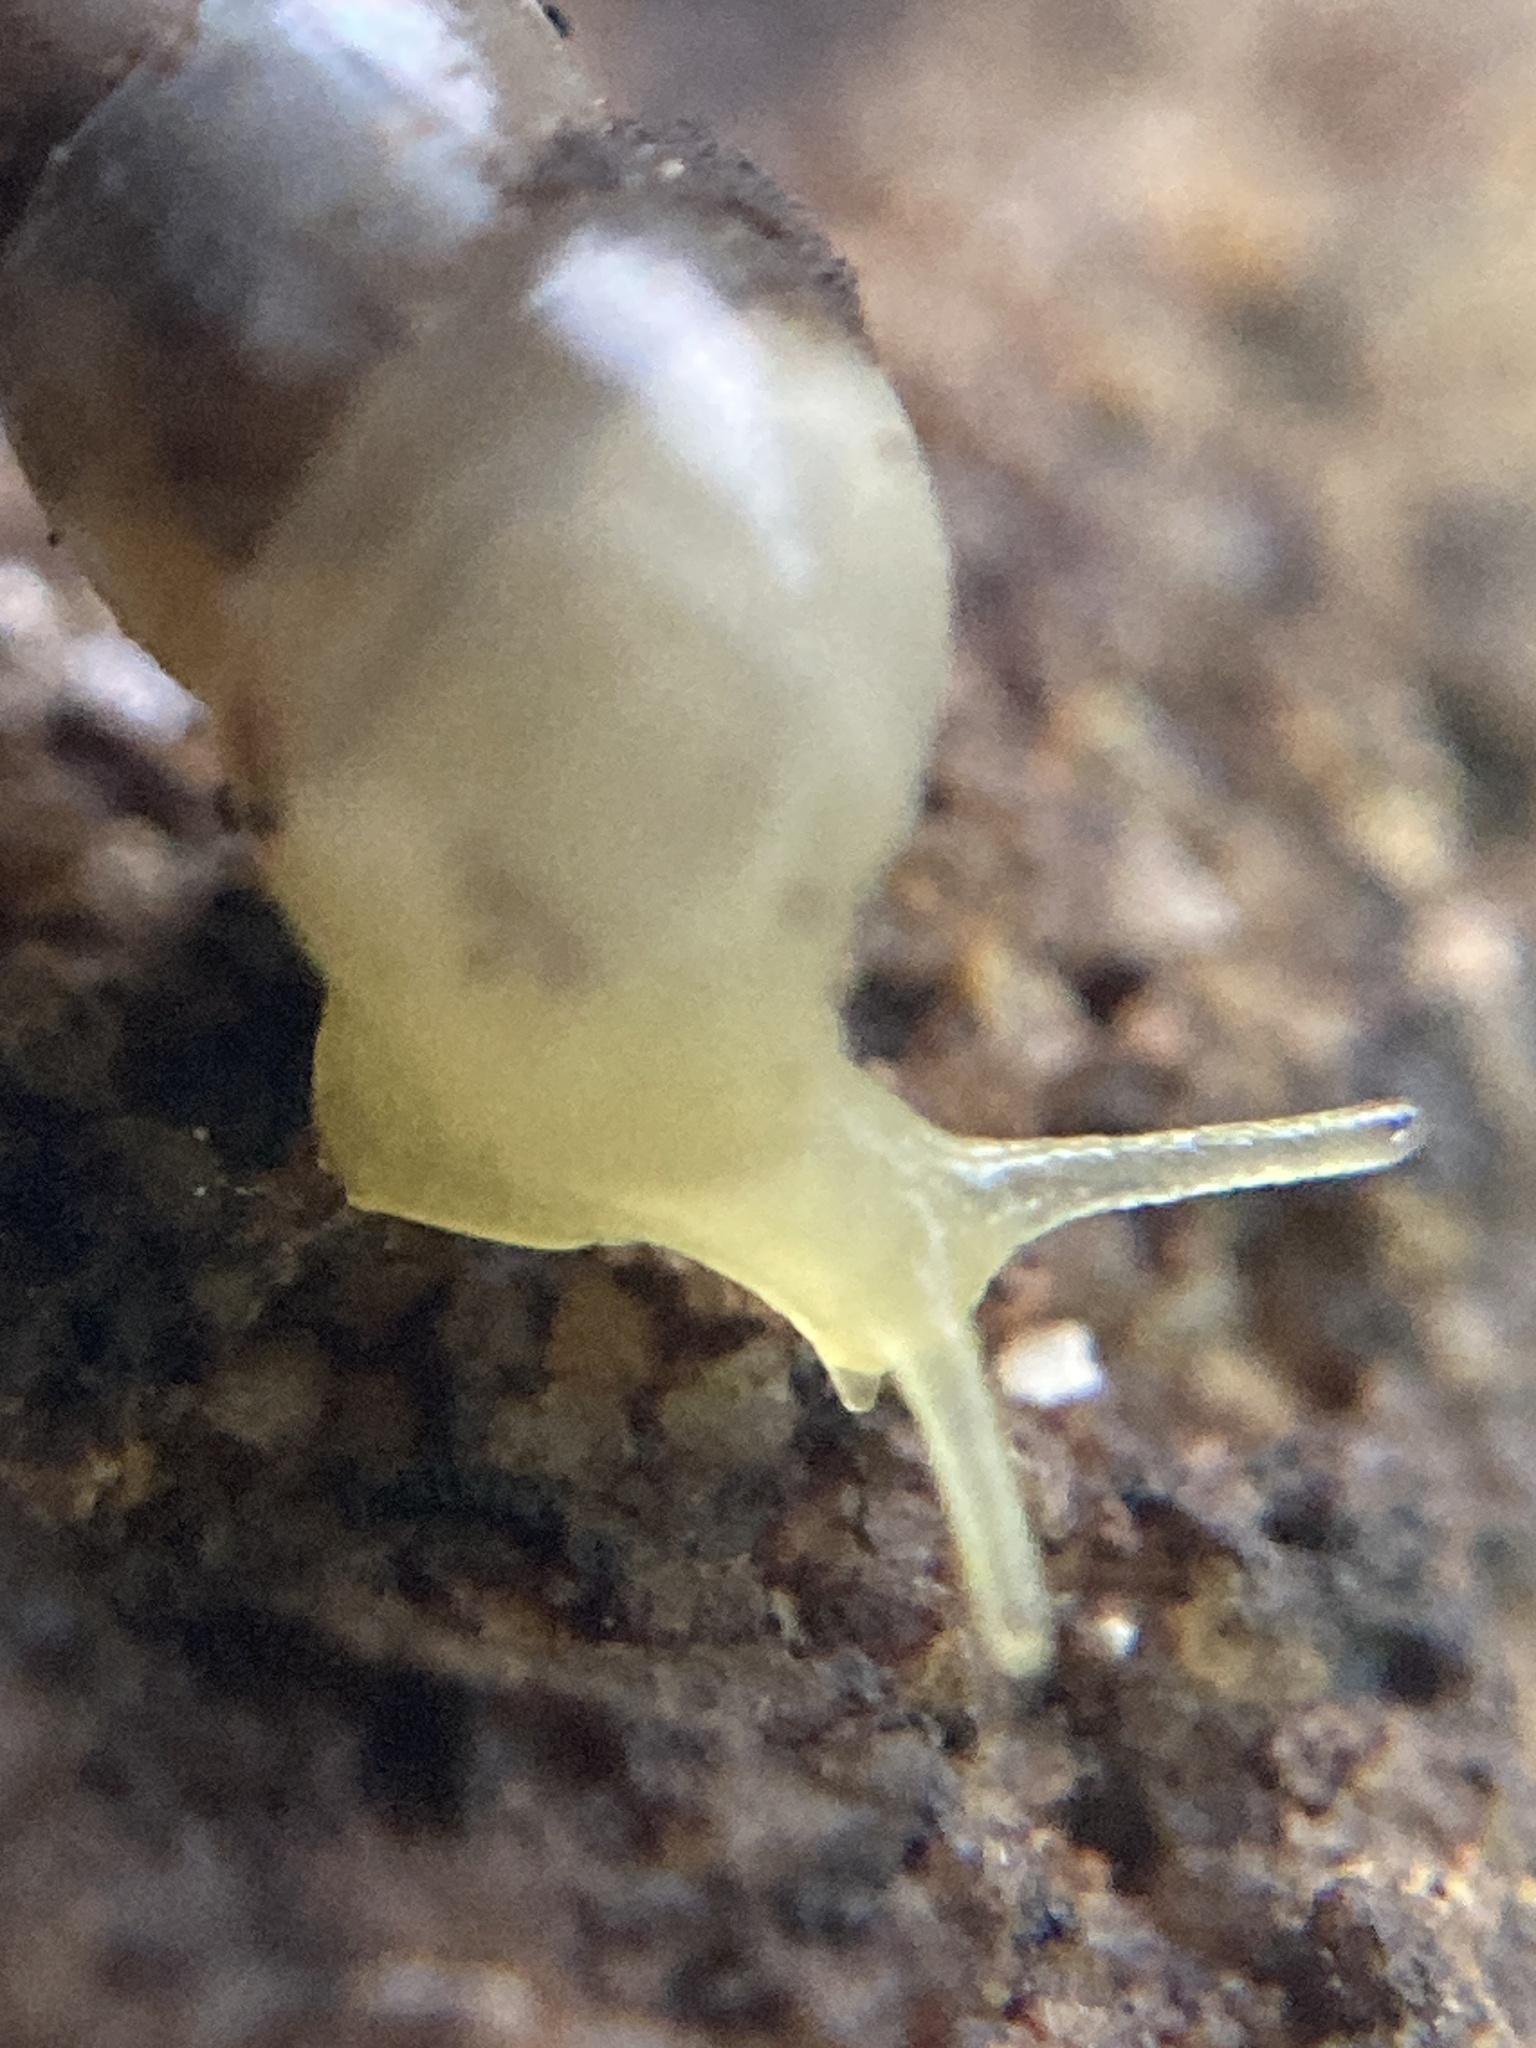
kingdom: Animalia
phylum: Mollusca
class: Gastropoda
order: Stylommatophora
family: Achatinidae
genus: Allopeas
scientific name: Allopeas clavulinum
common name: Spike awlsnail
